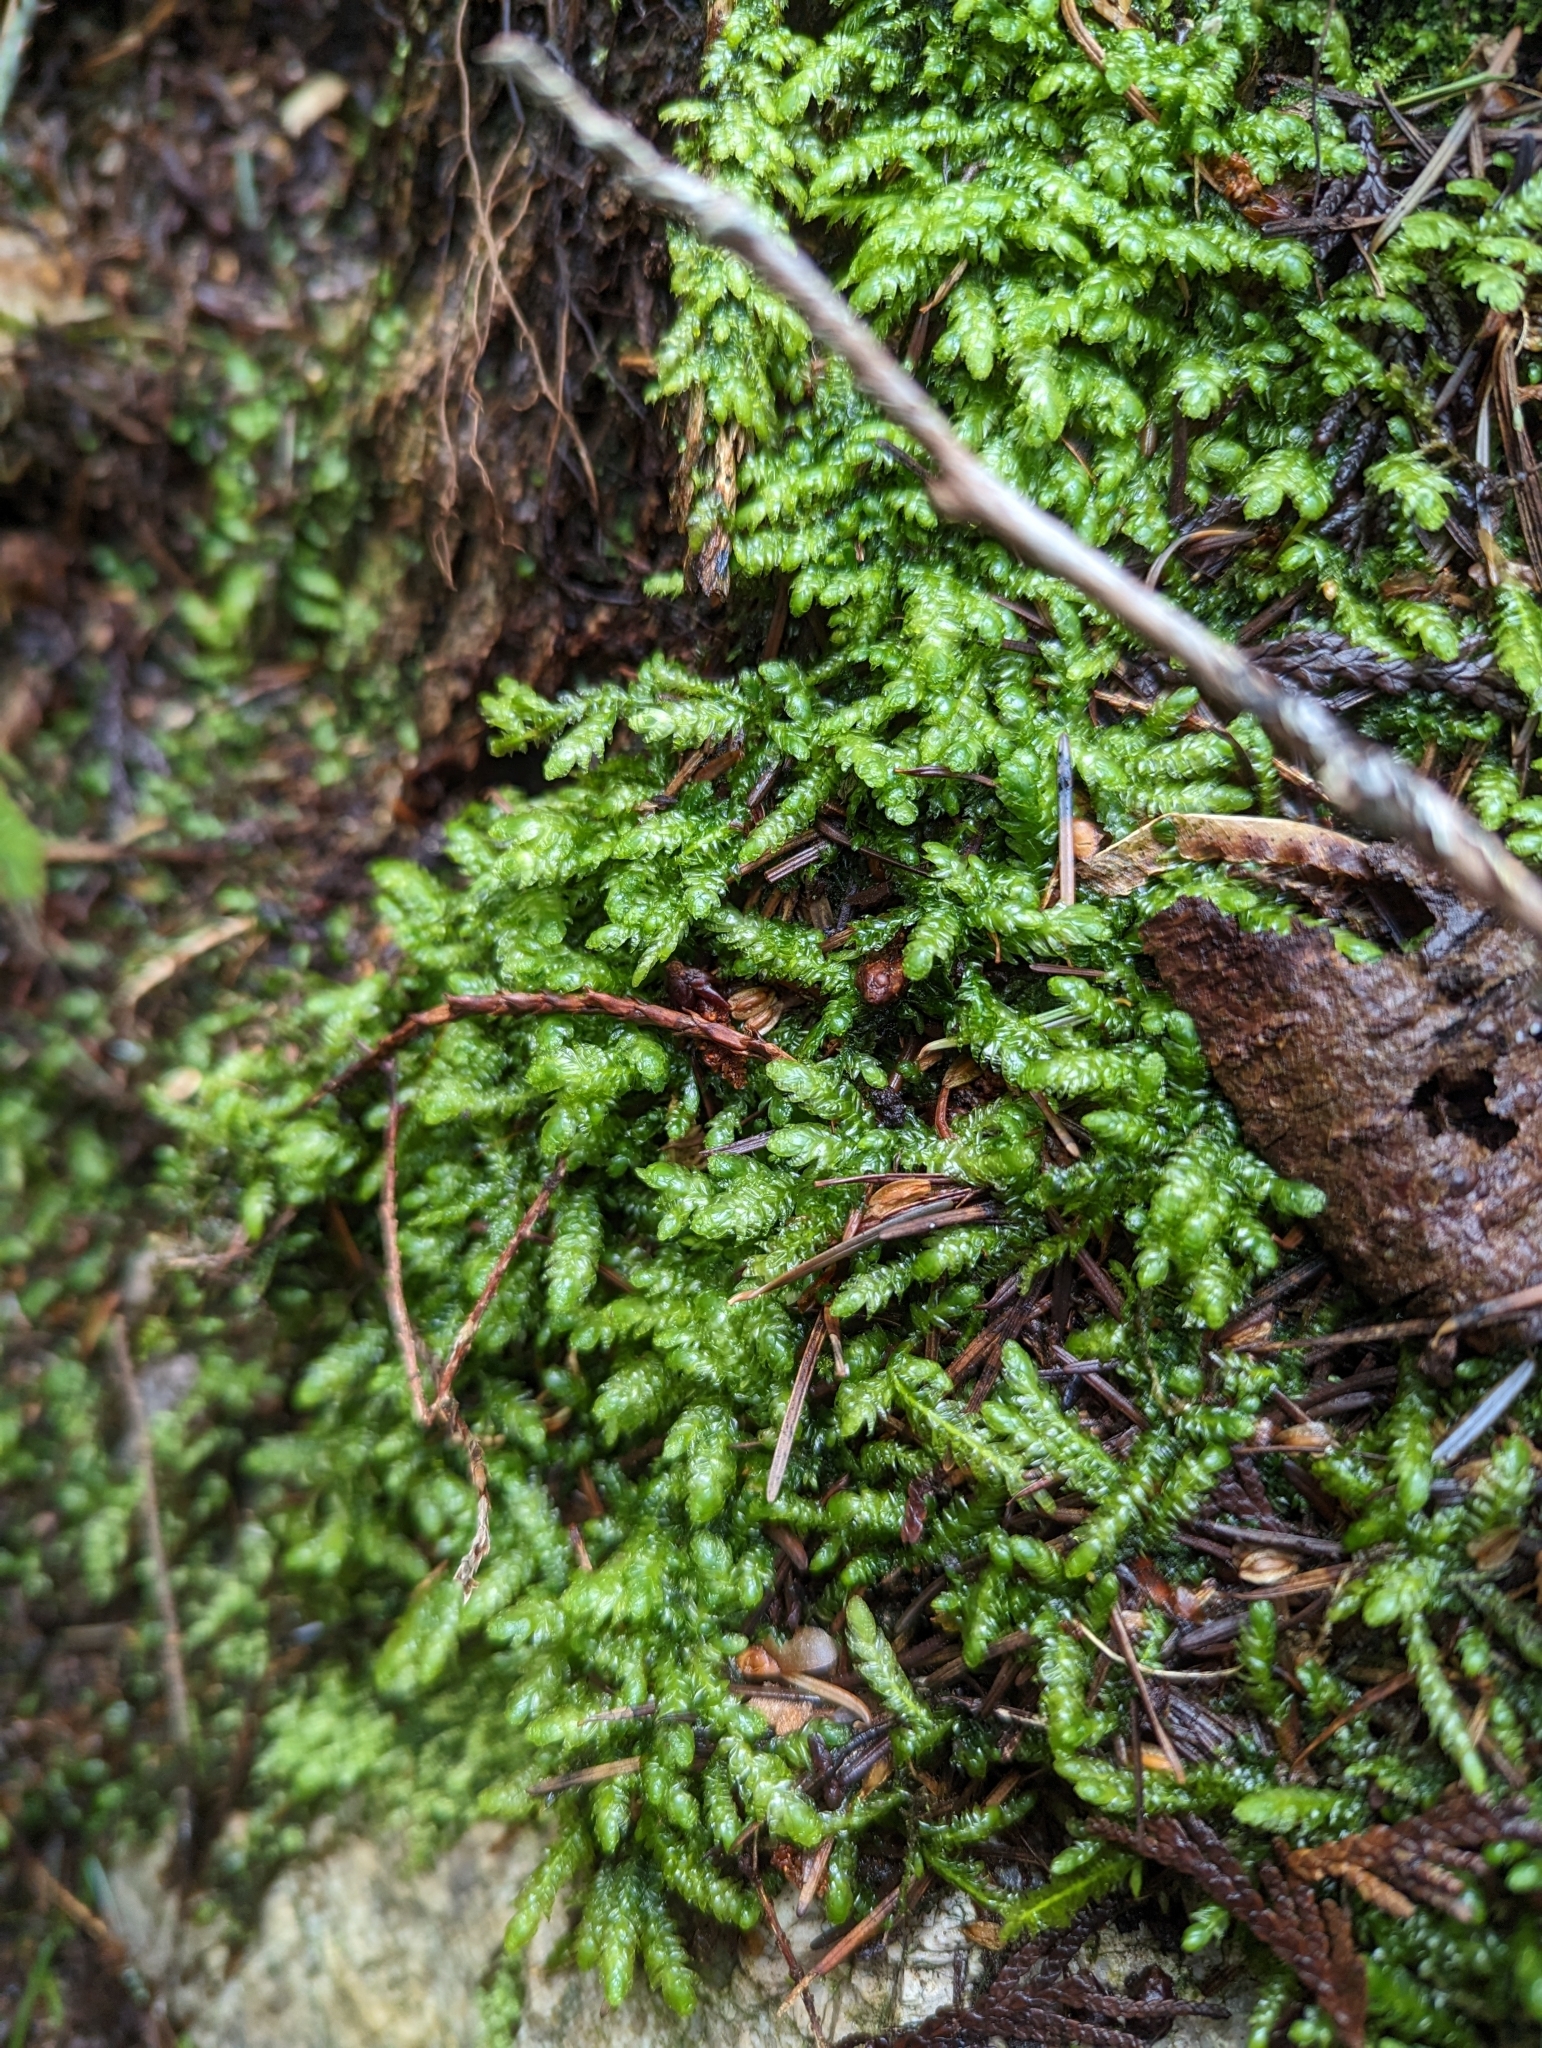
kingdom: Plantae
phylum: Bryophyta
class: Bryopsida
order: Hypnales
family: Plagiotheciaceae
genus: Plagiothecium
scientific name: Plagiothecium undulatum
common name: Waved silk-moss
